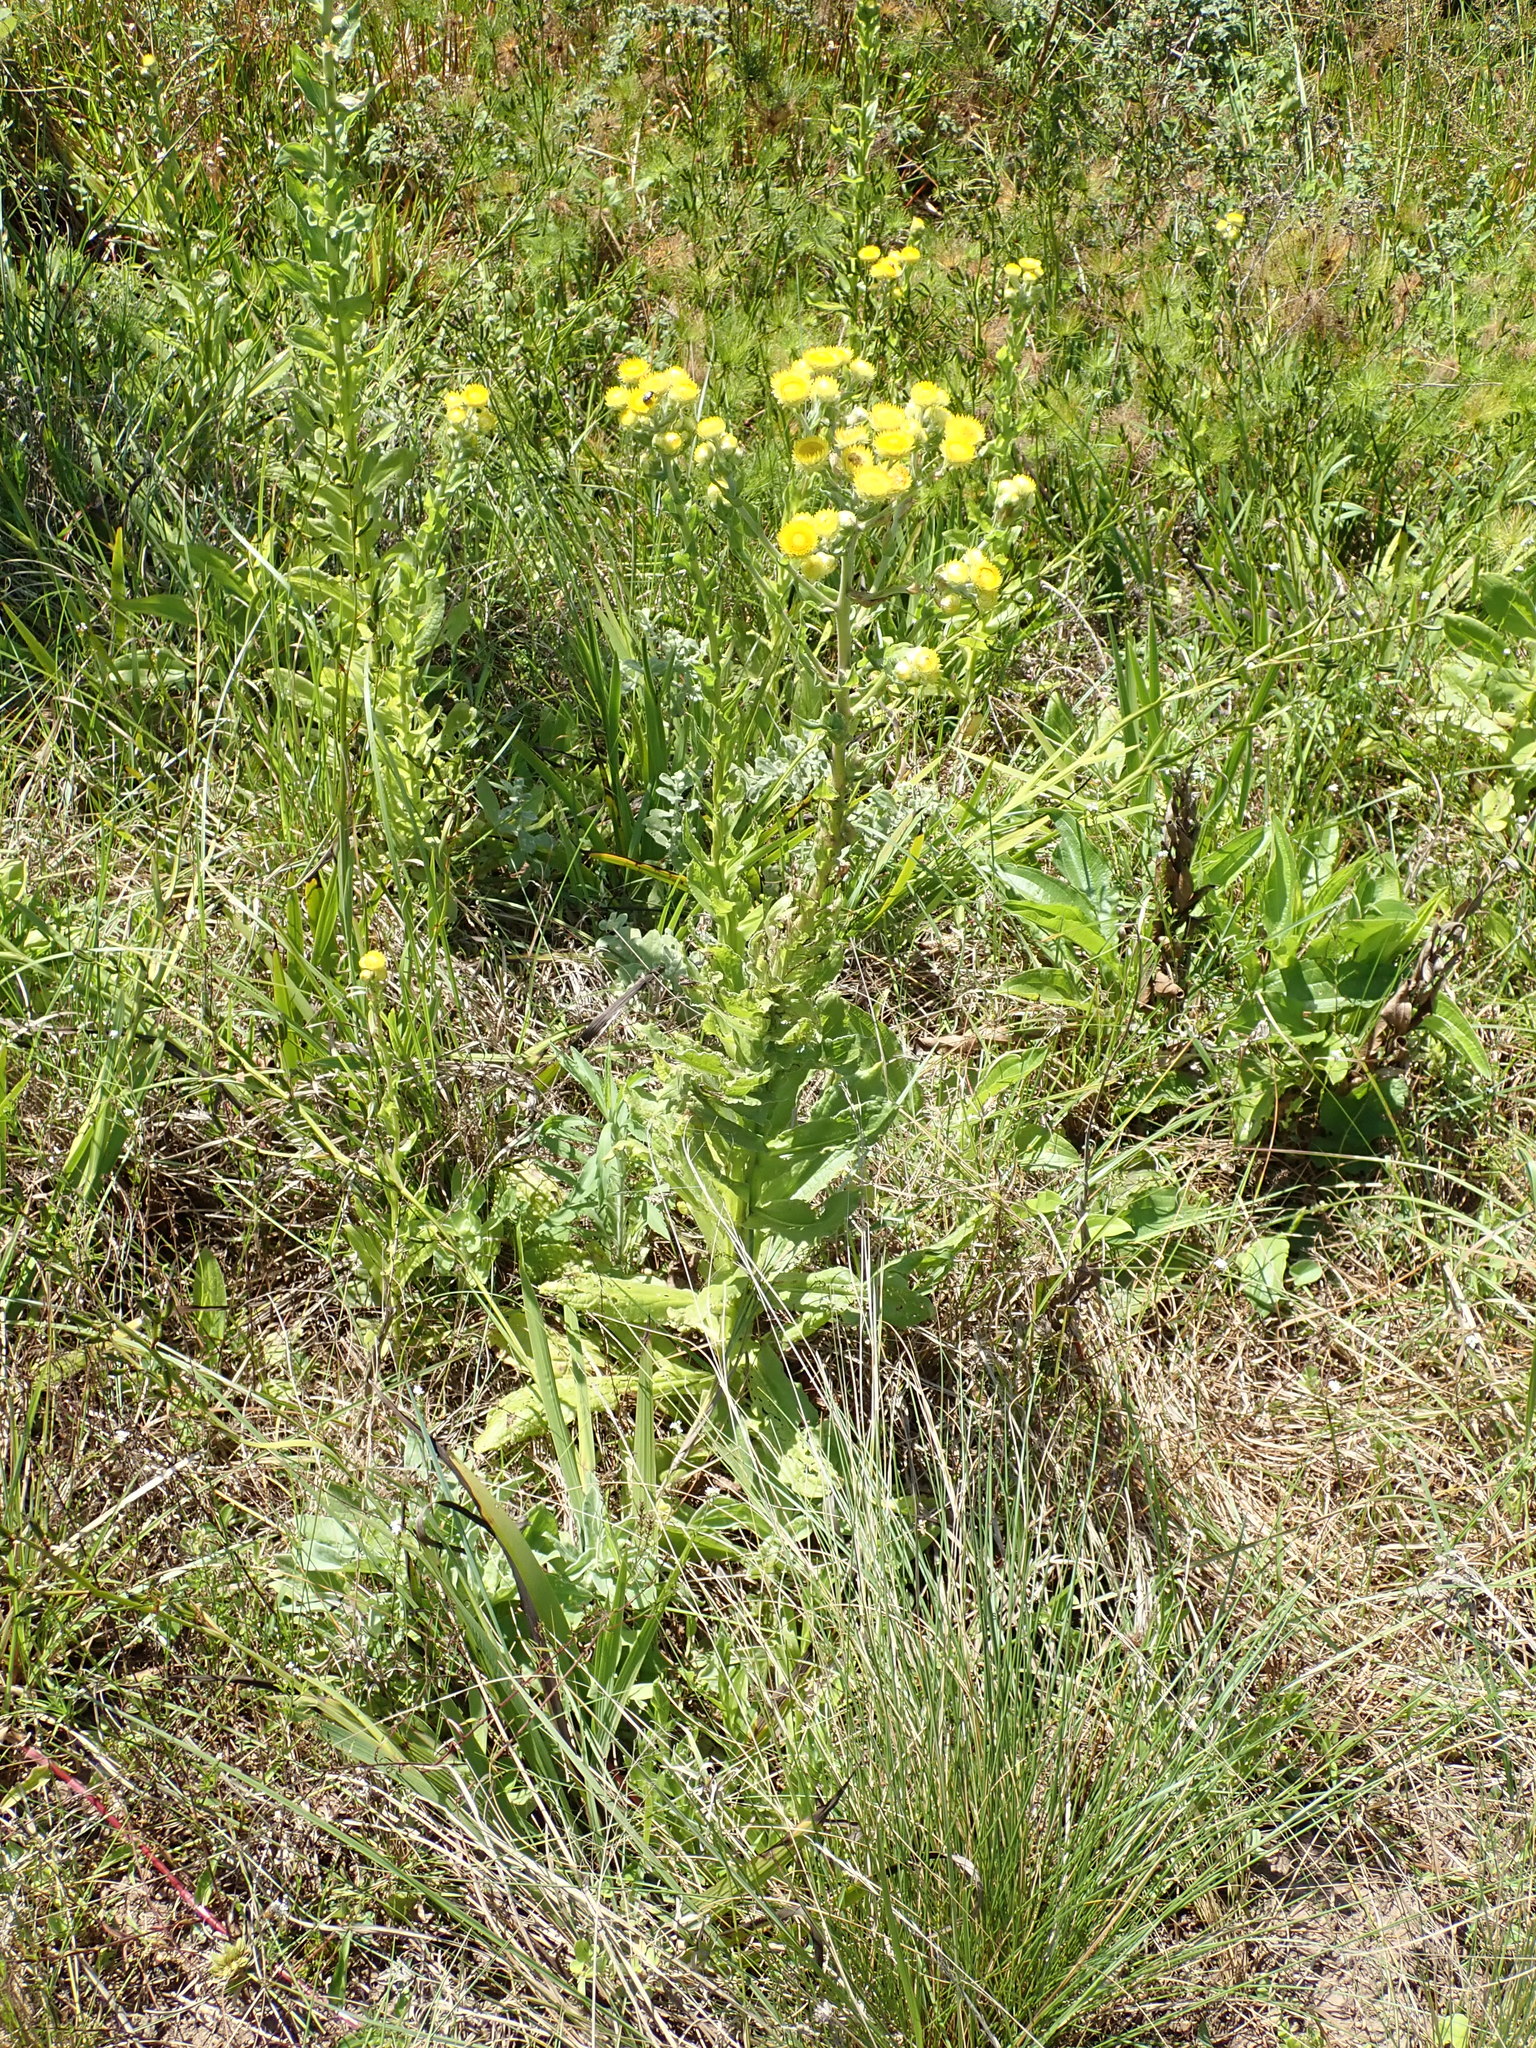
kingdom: Plantae
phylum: Tracheophyta
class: Magnoliopsida
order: Asterales
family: Asteraceae
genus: Helichrysum
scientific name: Helichrysum cooperi
